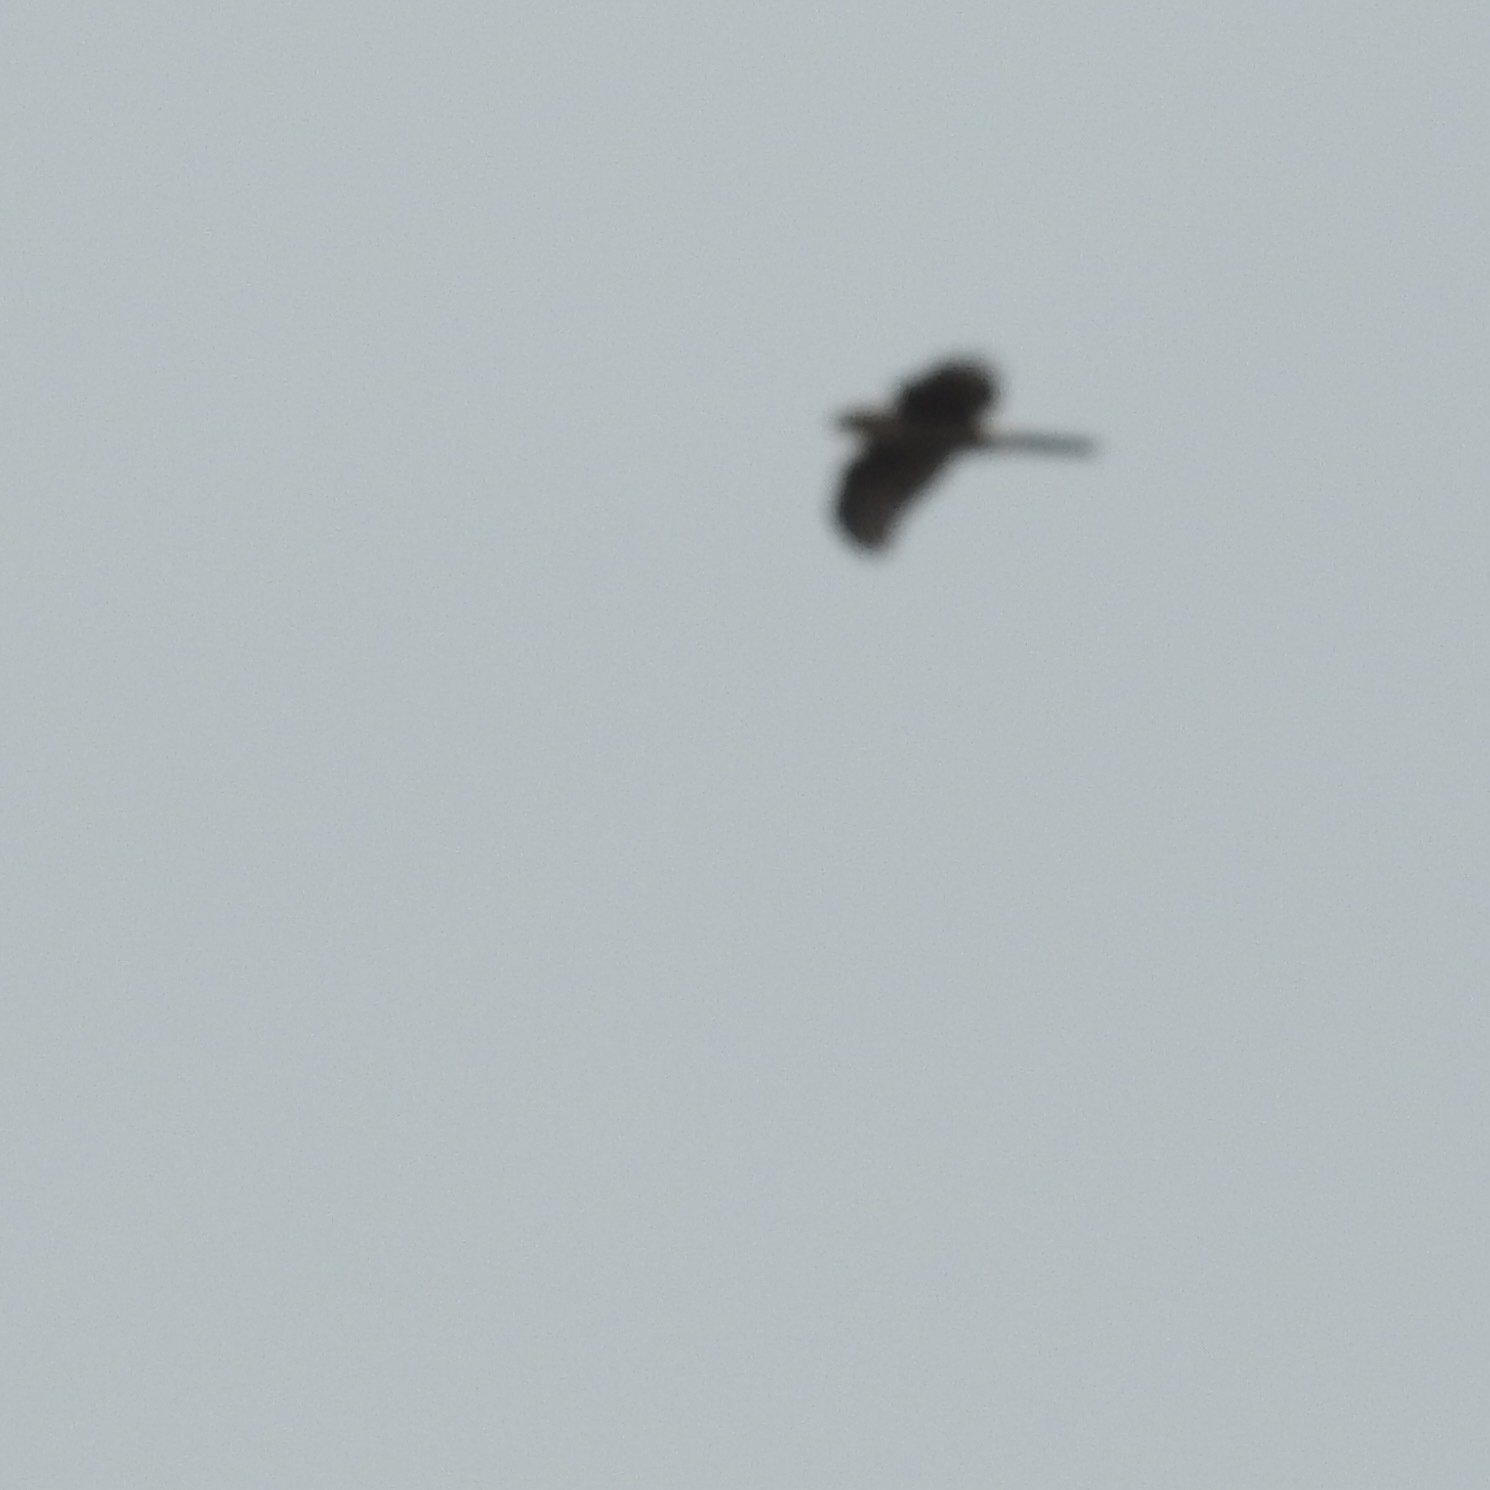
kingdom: Animalia
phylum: Chordata
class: Aves
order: Accipitriformes
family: Accipitridae
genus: Accipiter
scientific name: Accipiter cooperii
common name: Cooper's hawk
